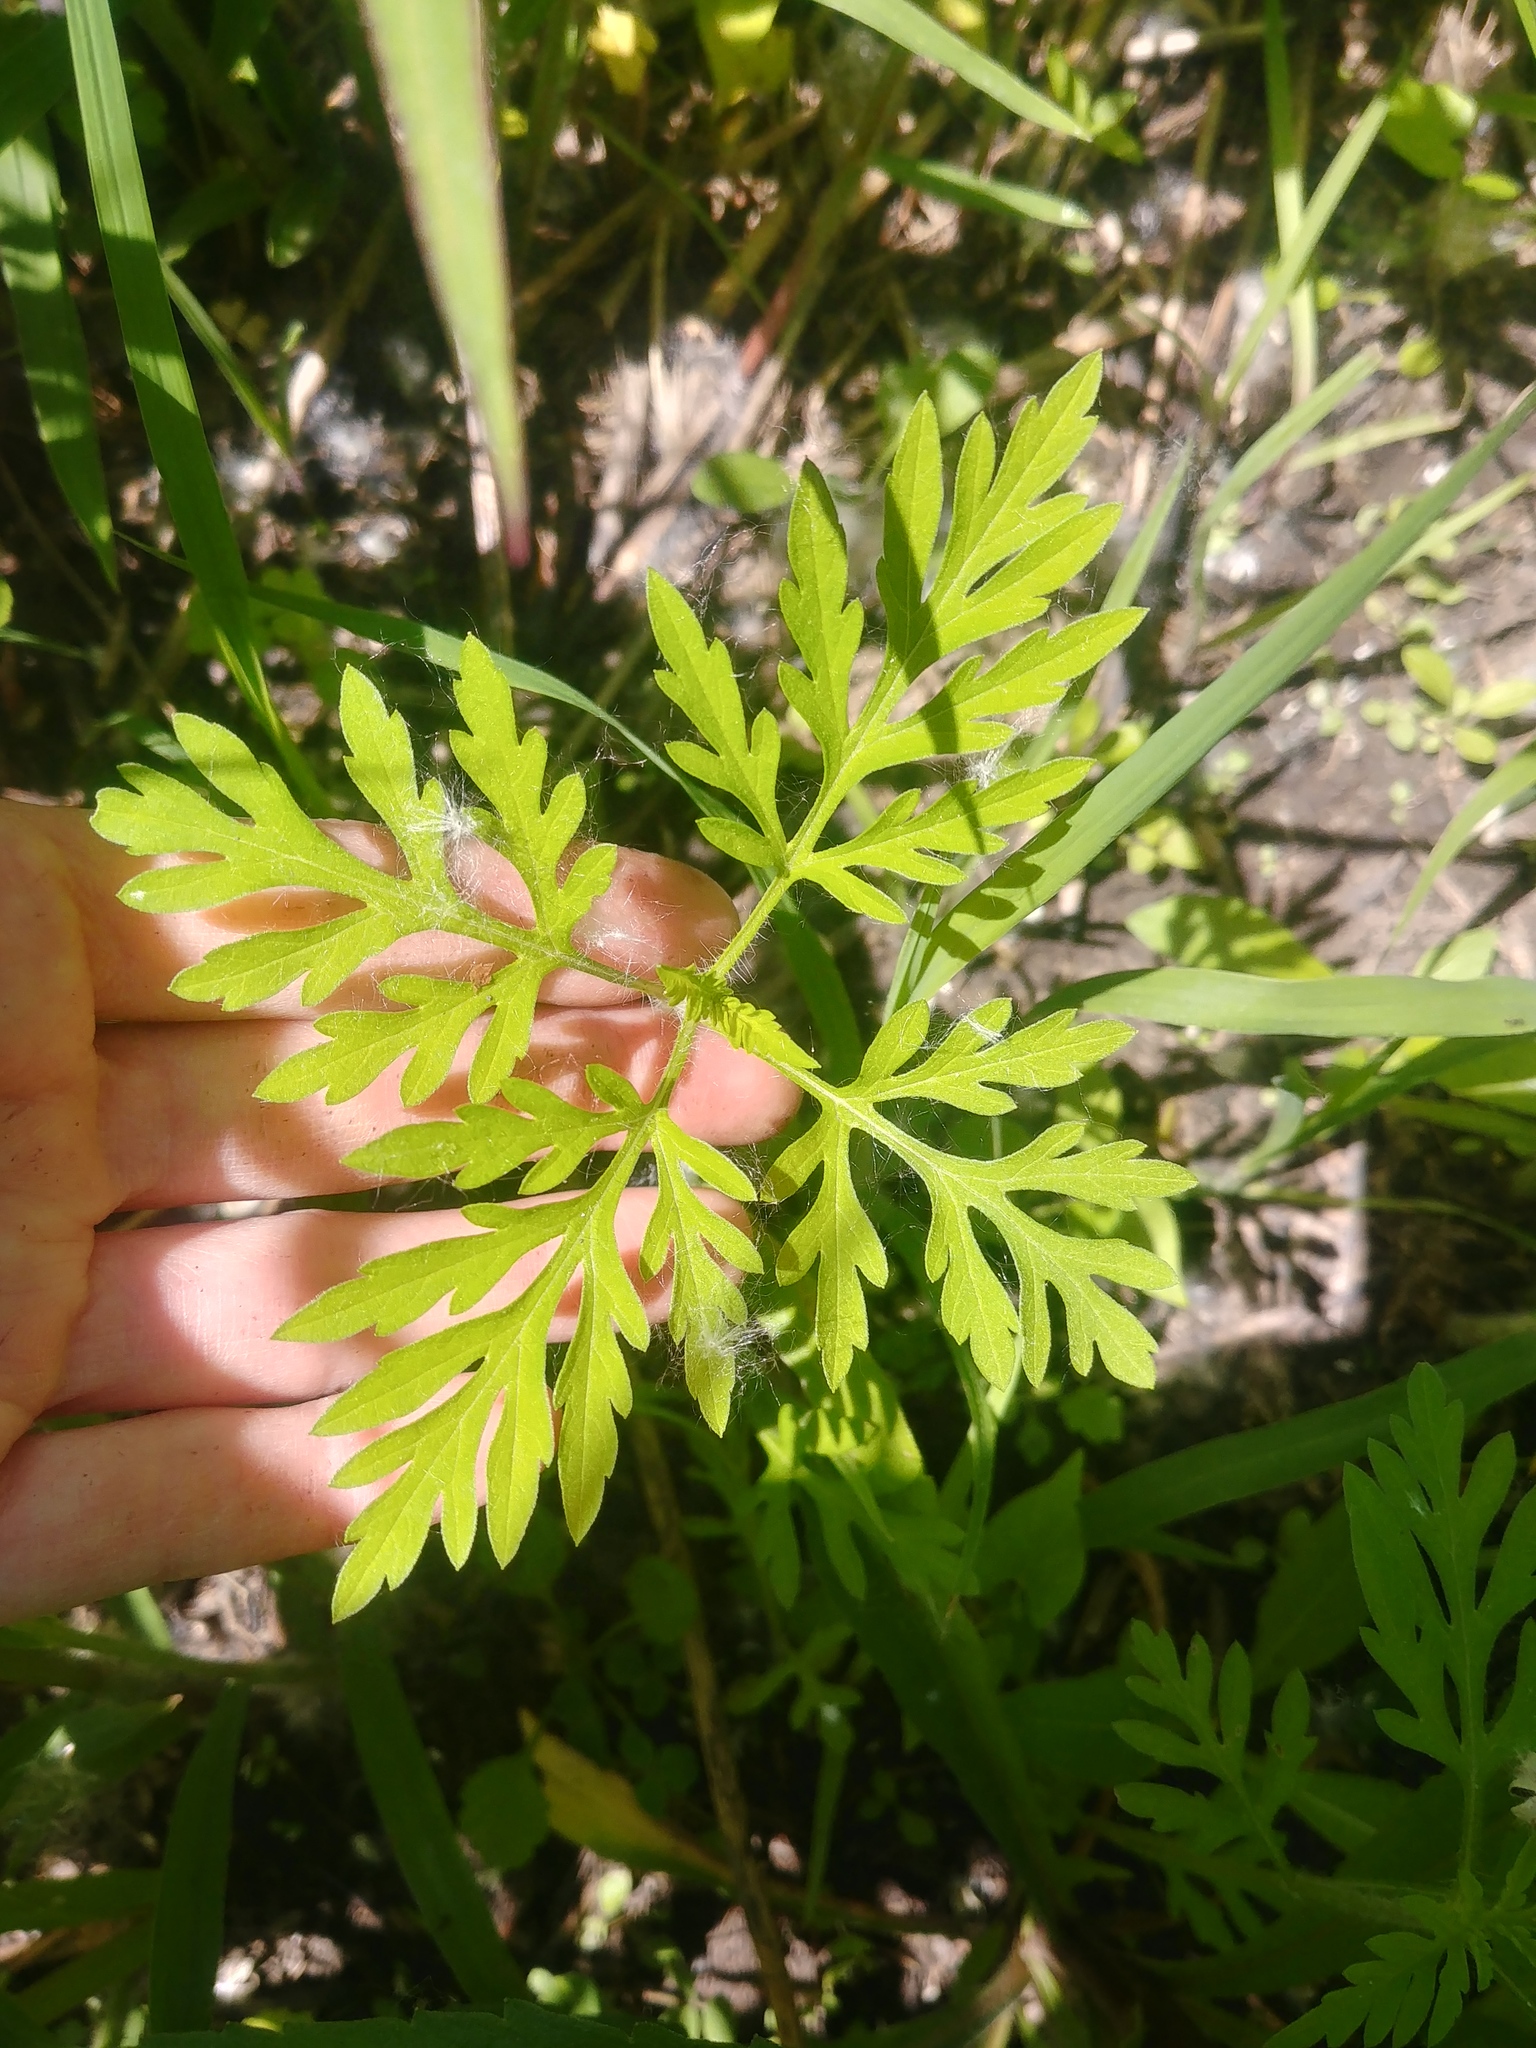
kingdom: Plantae
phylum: Tracheophyta
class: Magnoliopsida
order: Asterales
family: Asteraceae
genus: Ambrosia
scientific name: Ambrosia artemisiifolia
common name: Annual ragweed
